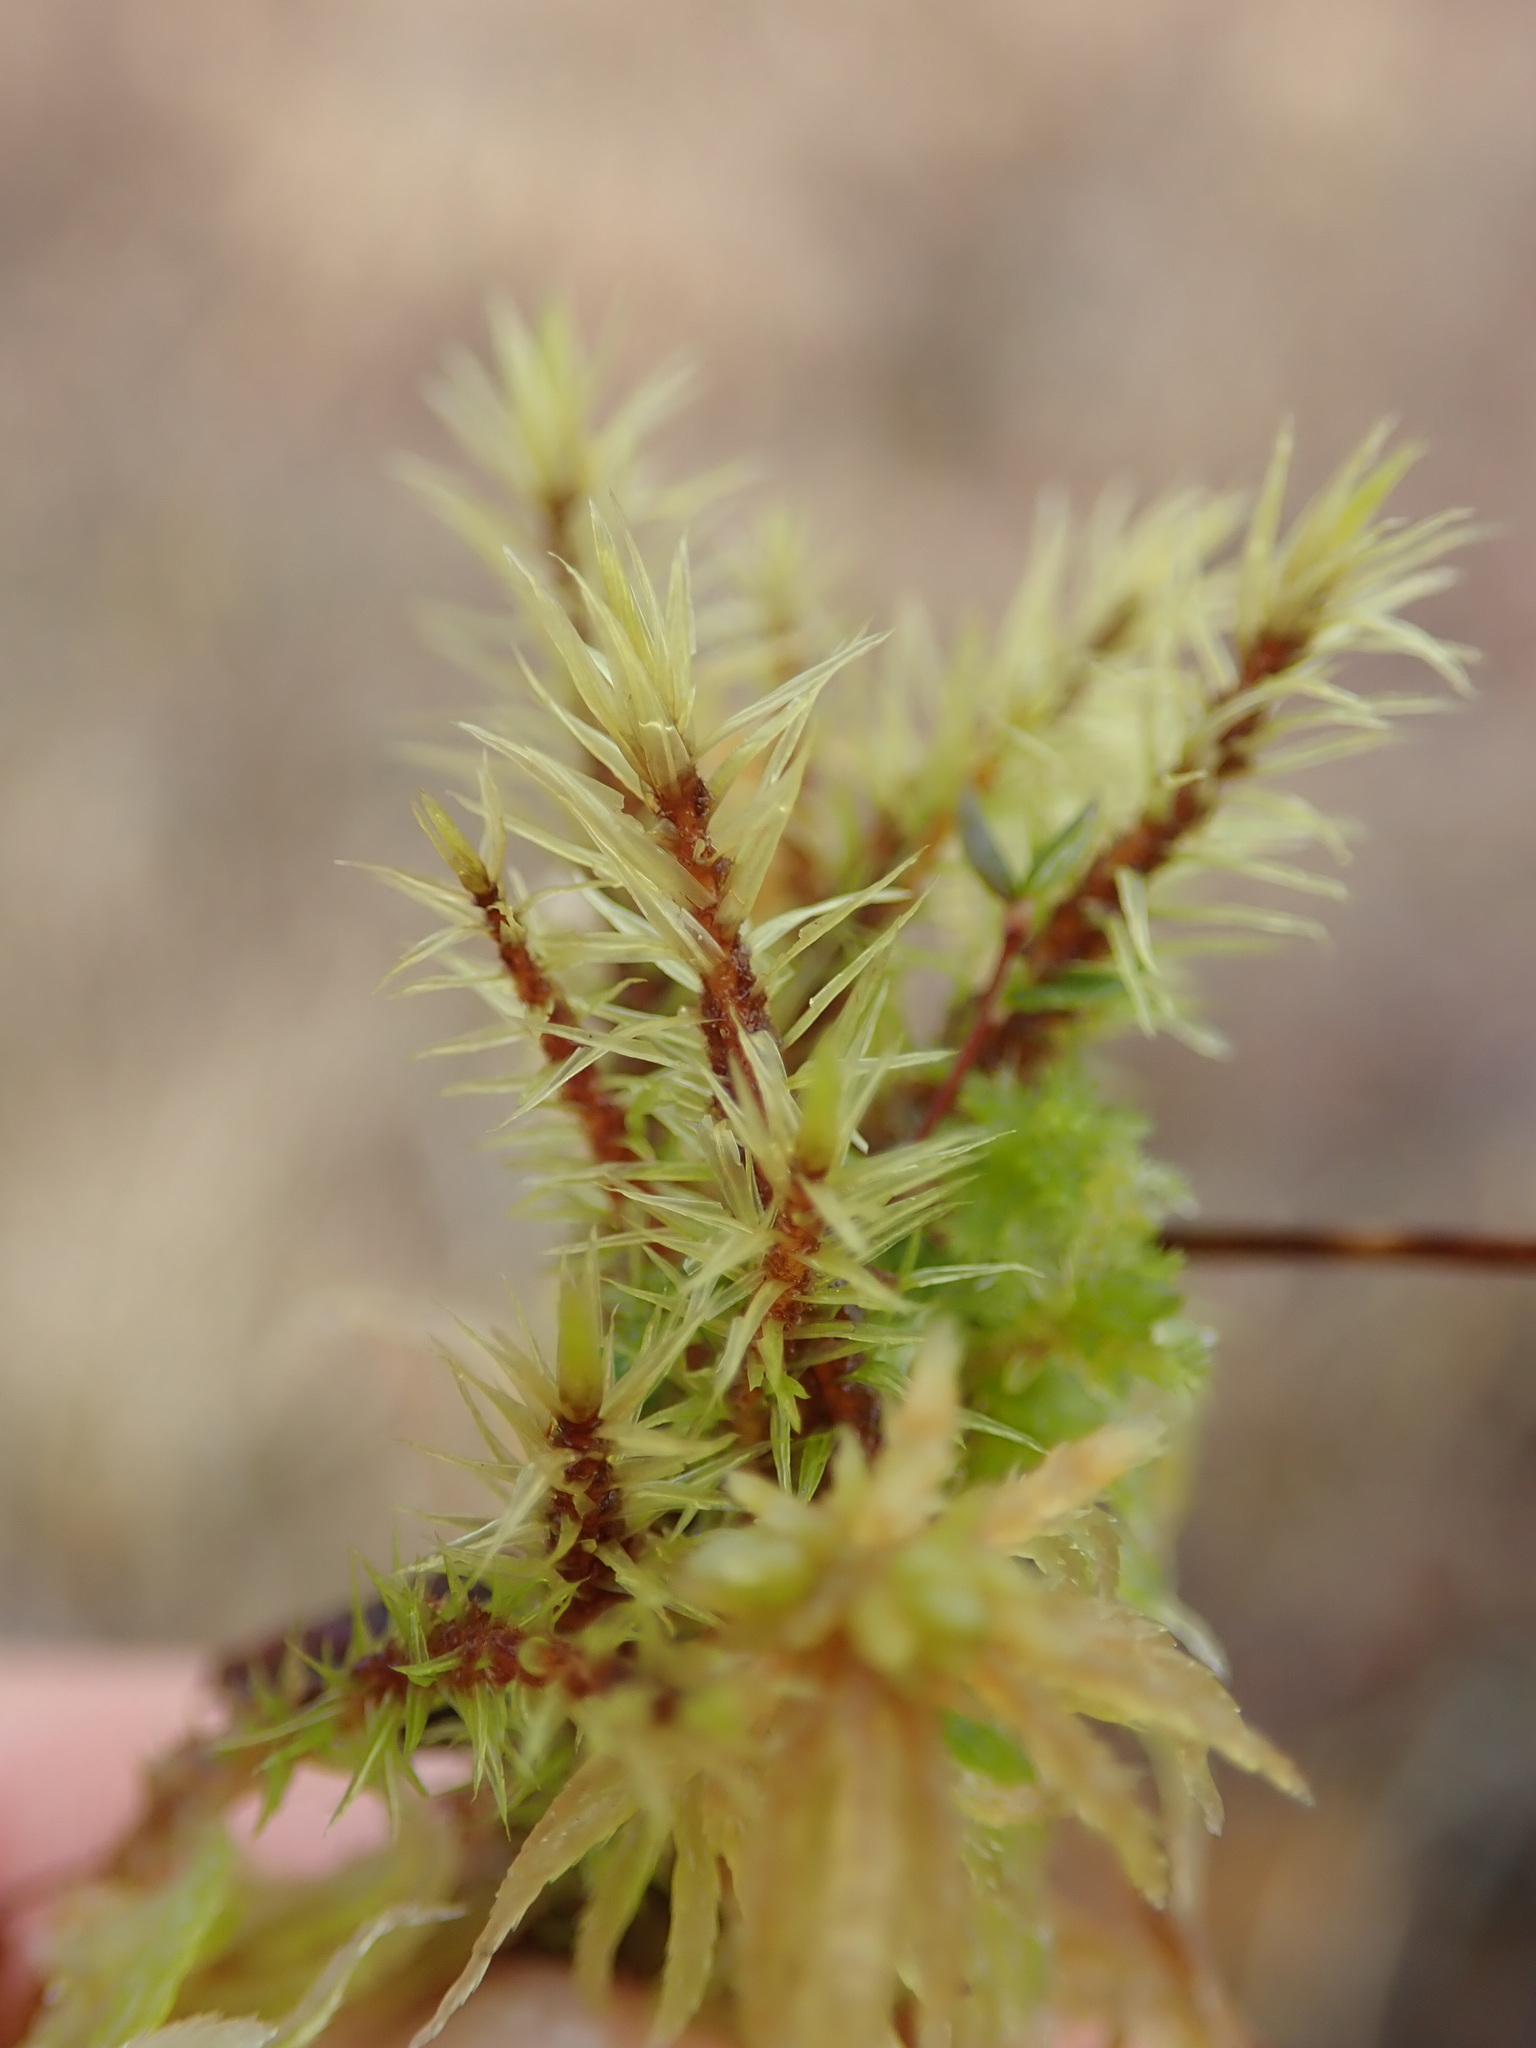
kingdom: Plantae
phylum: Bryophyta
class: Bryopsida
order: Aulacomniales
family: Aulacomniaceae
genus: Aulacomnium
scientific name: Aulacomnium palustre
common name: Bog groove-moss
